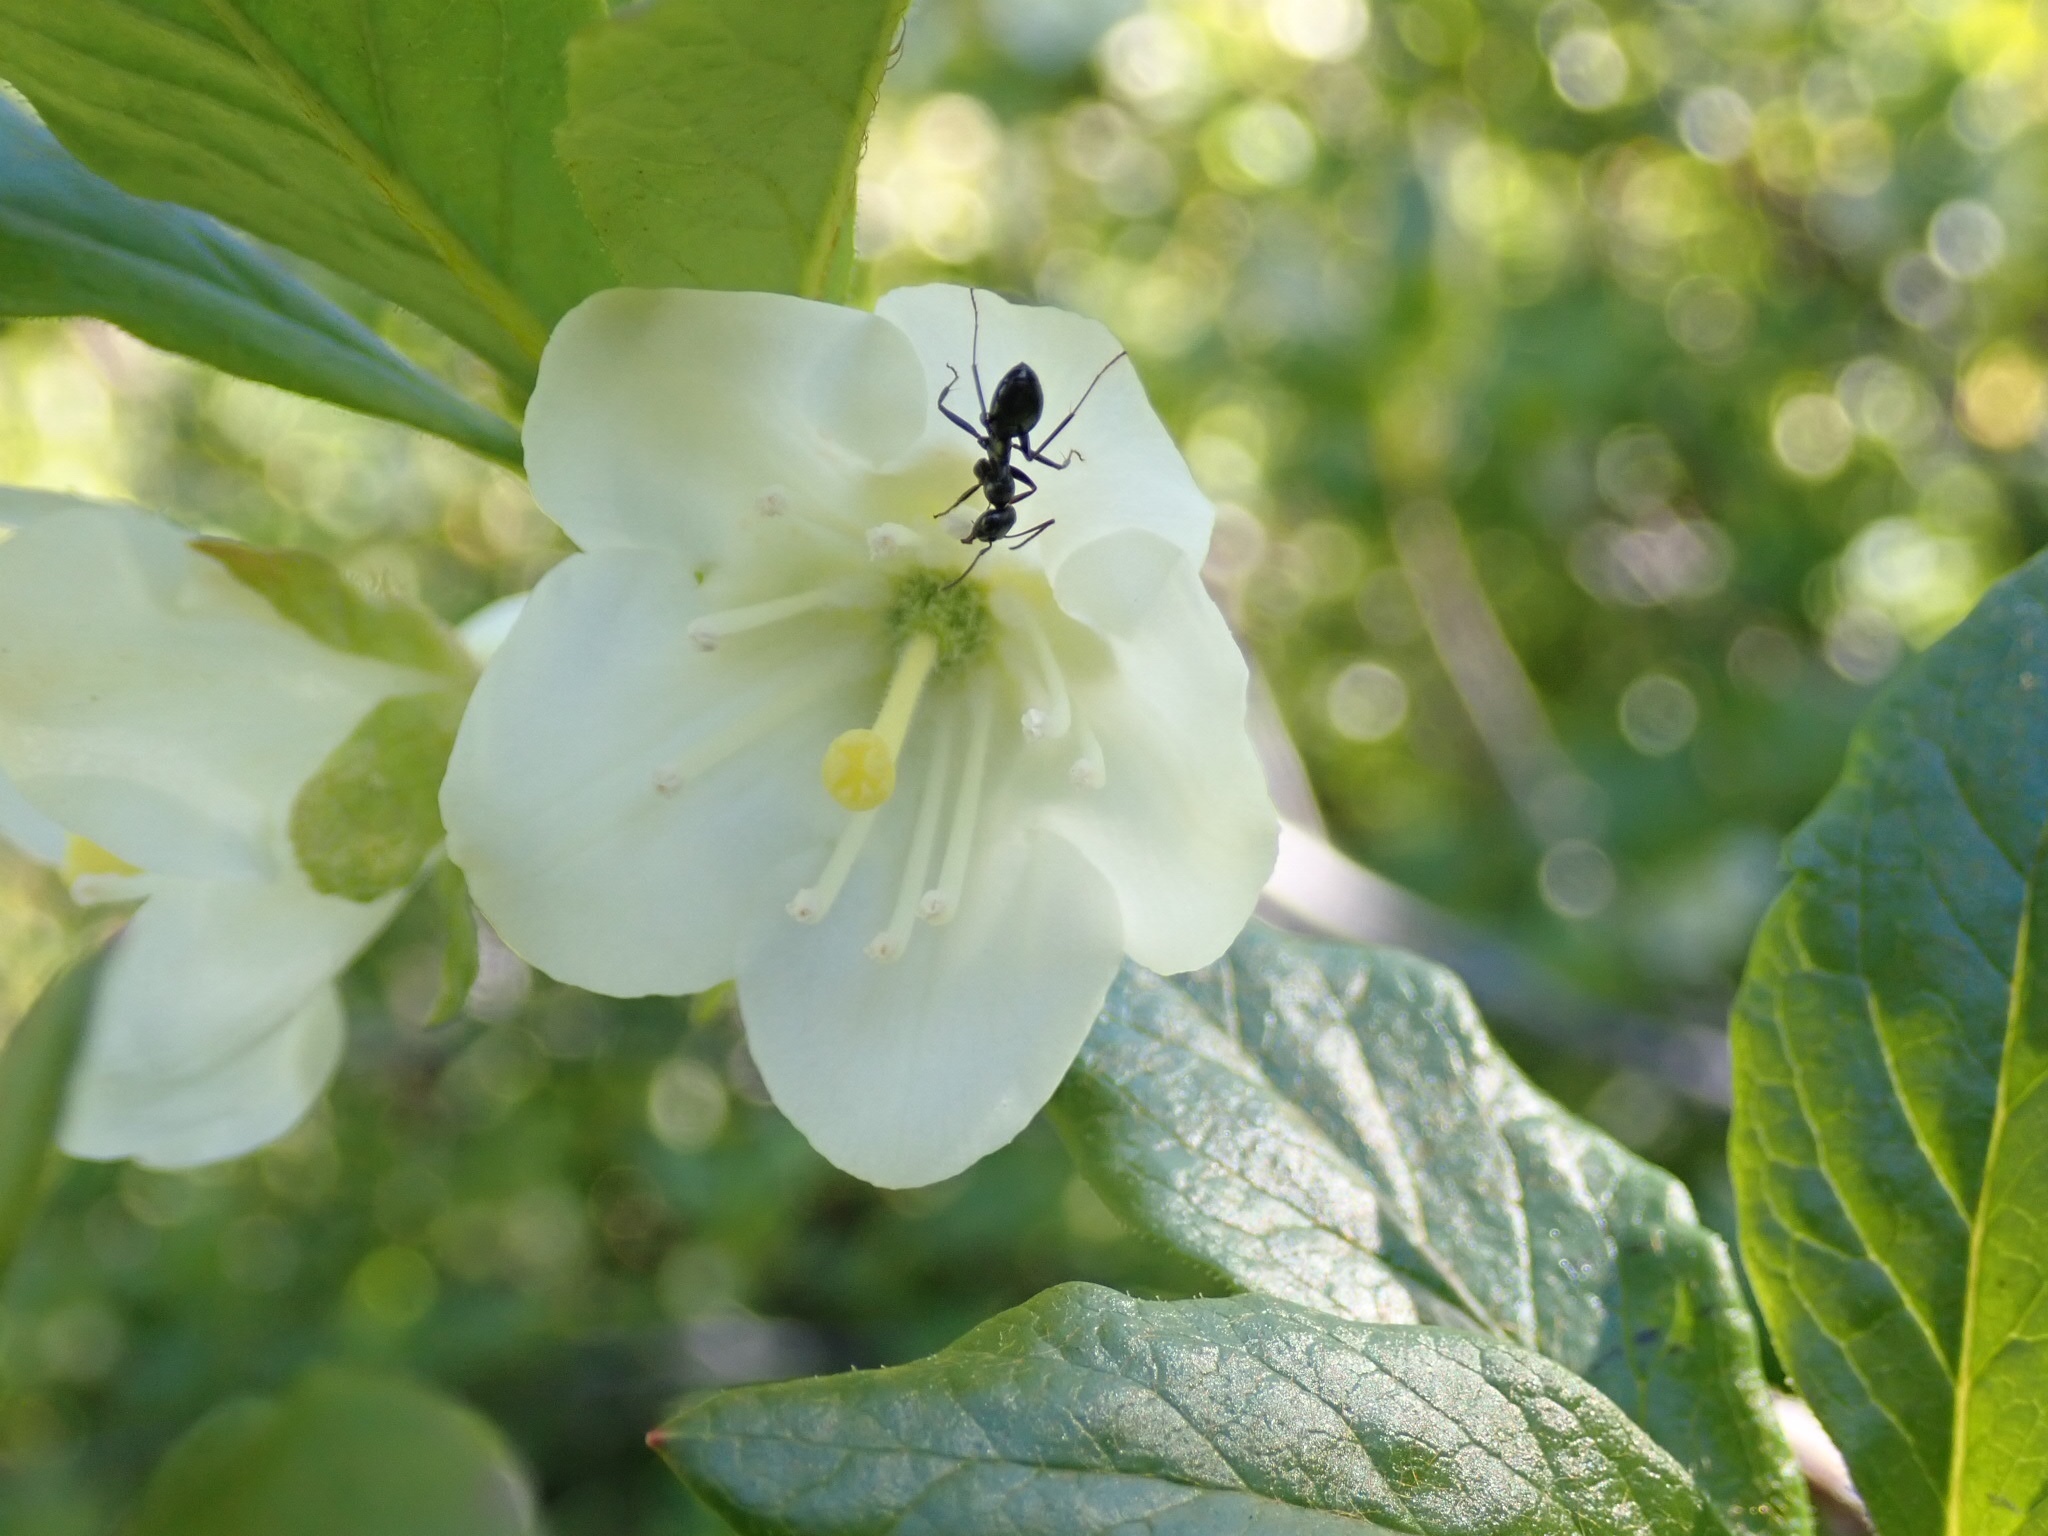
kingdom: Plantae
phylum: Tracheophyta
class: Magnoliopsida
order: Ericales
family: Ericaceae
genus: Rhododendron
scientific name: Rhododendron albiflorum
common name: White rhododendron
